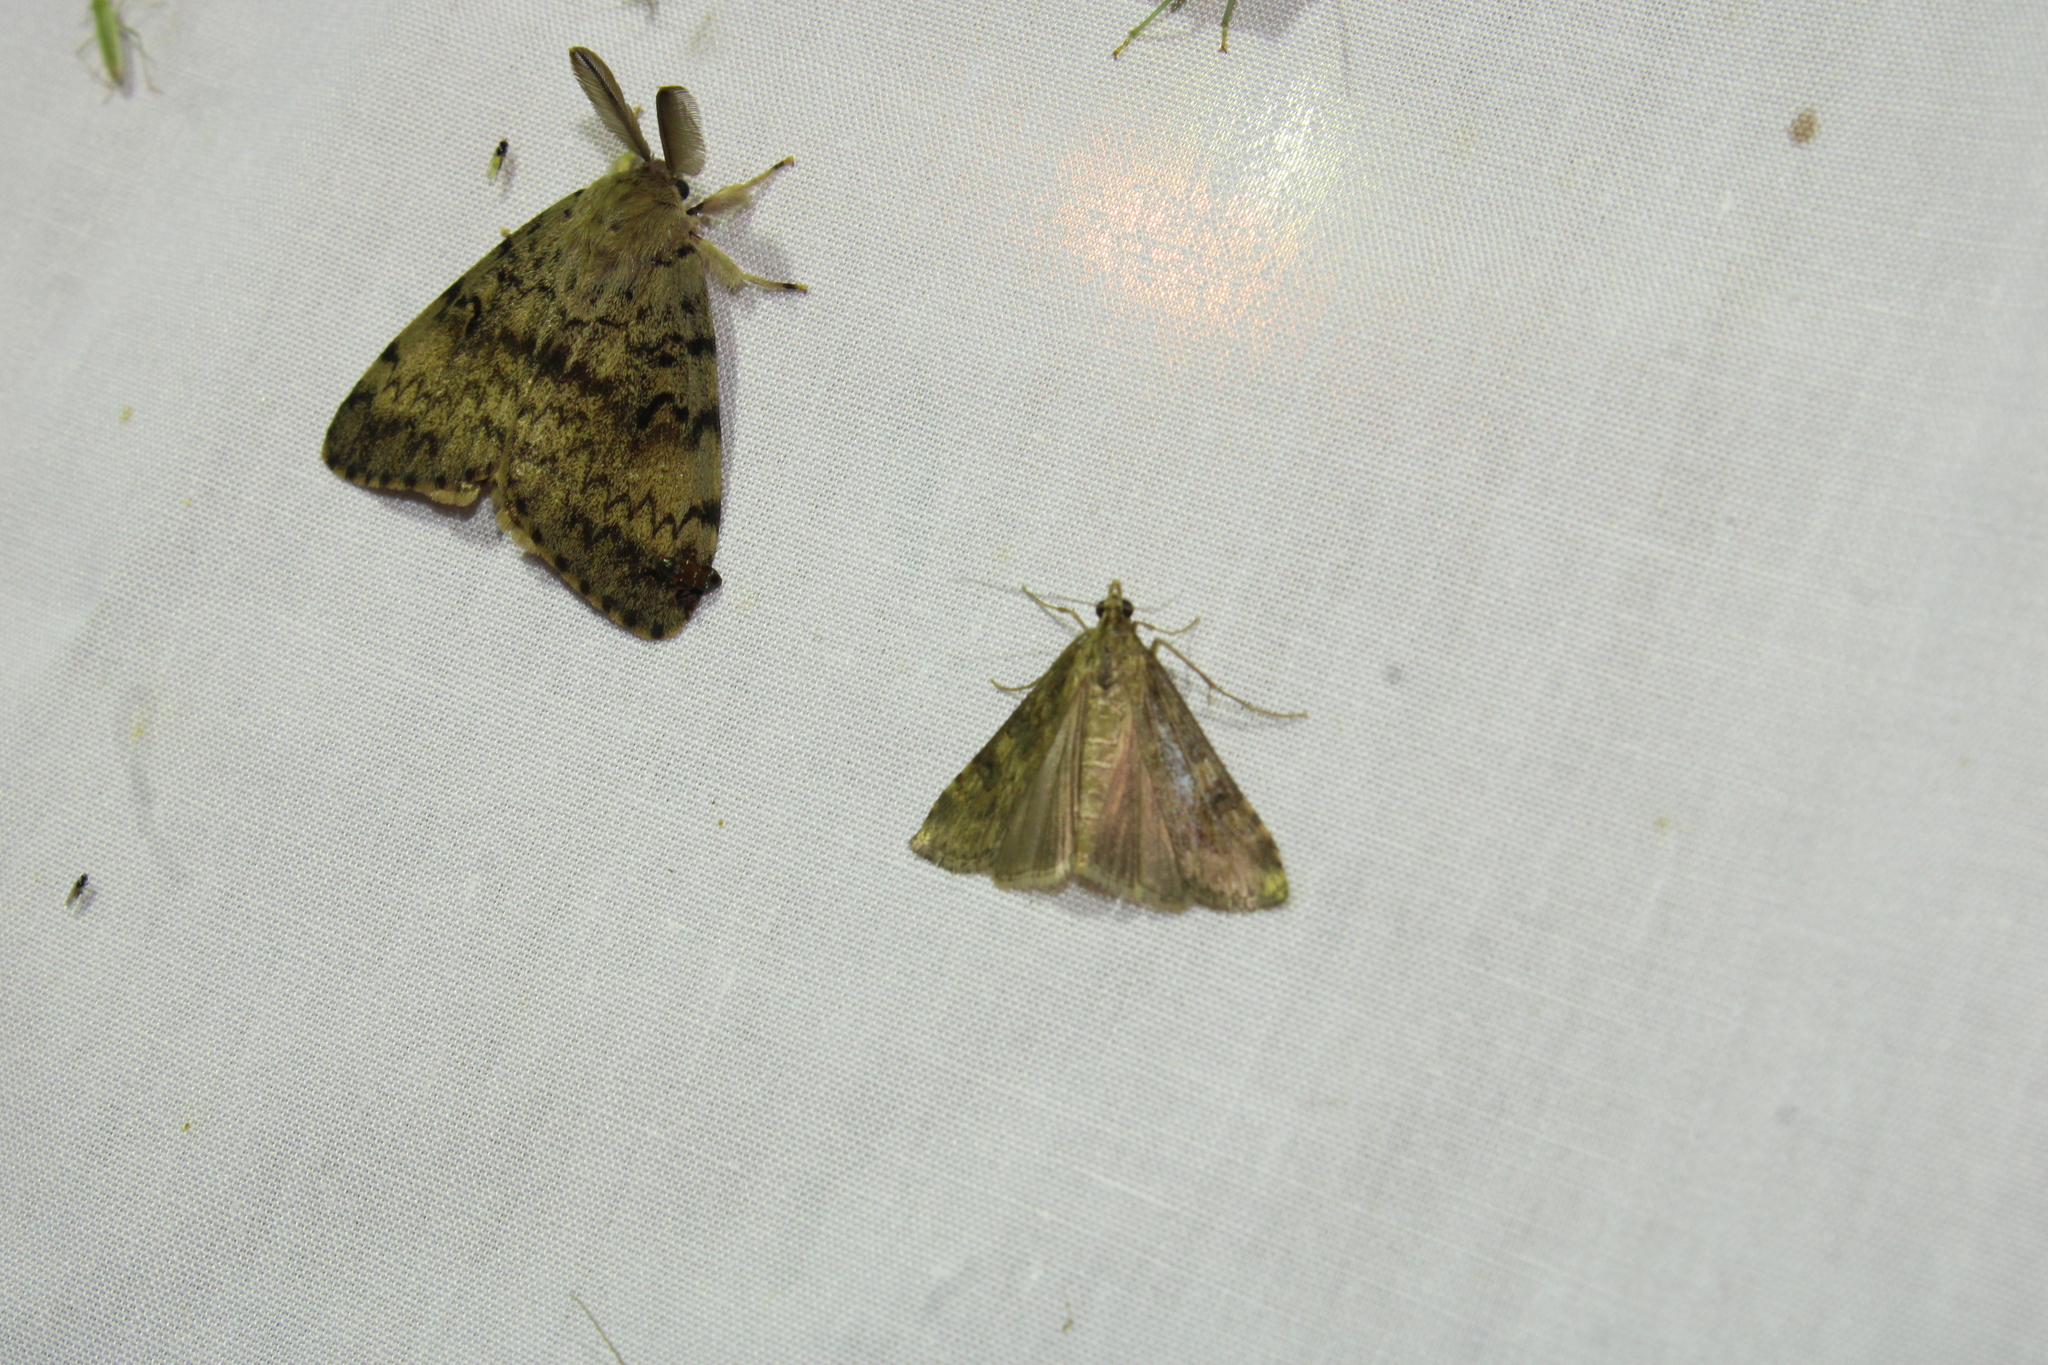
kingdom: Animalia
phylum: Arthropoda
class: Insecta
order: Lepidoptera
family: Erebidae
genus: Lymantria
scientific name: Lymantria dispar
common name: Gypsy moth
